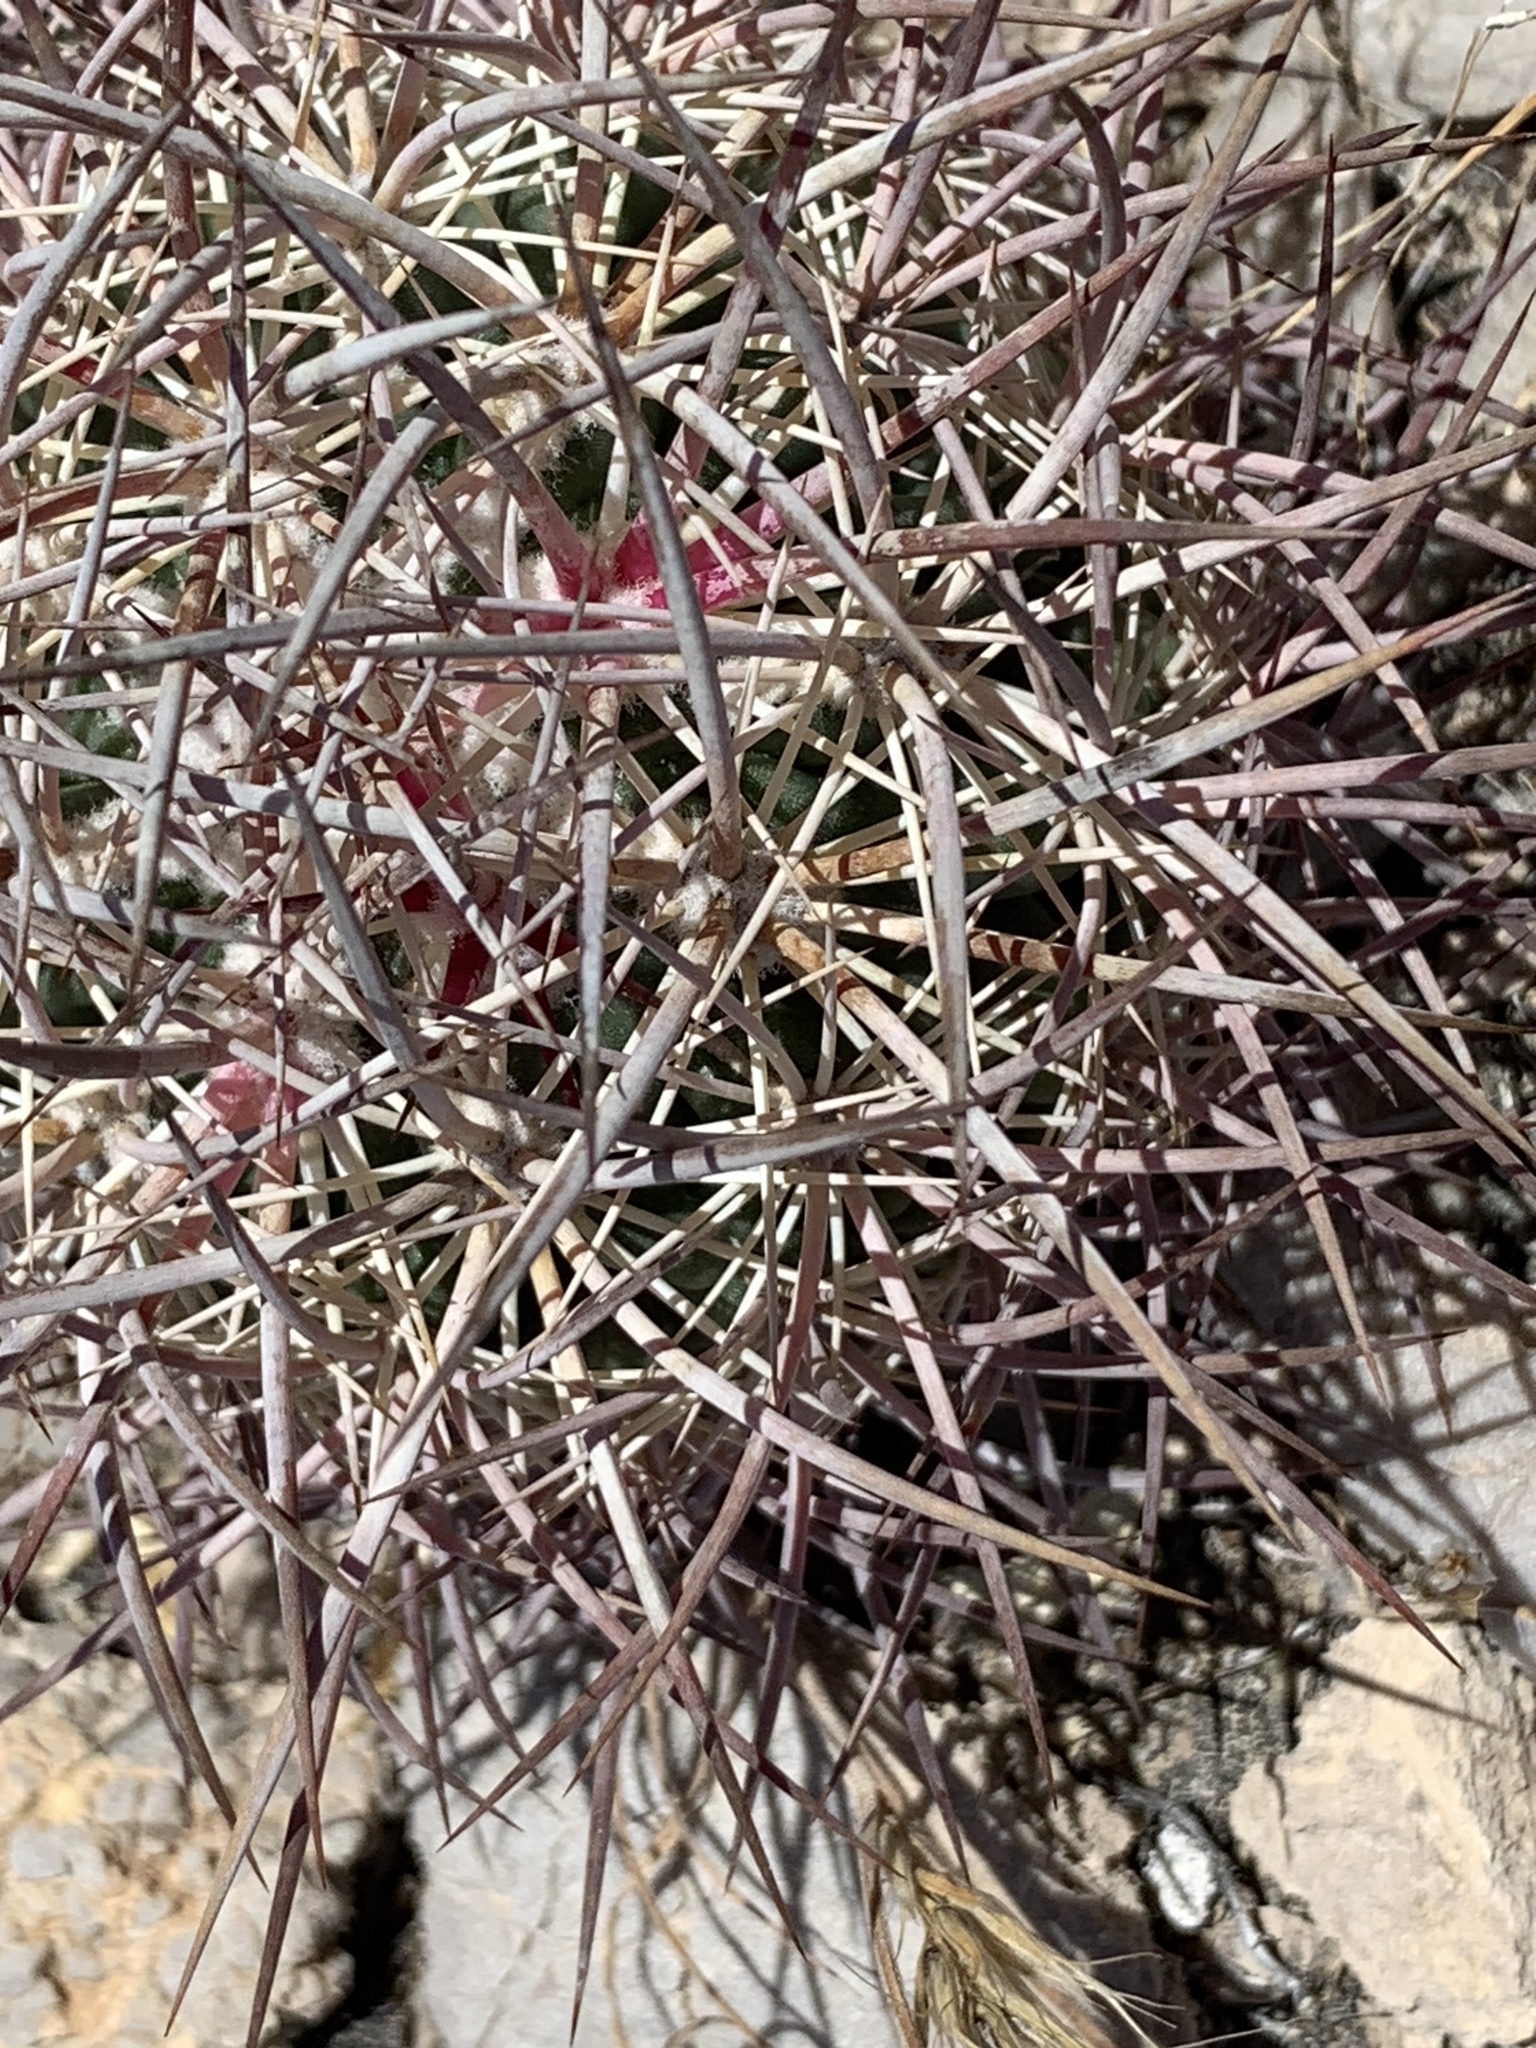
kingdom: Plantae
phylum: Tracheophyta
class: Magnoliopsida
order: Caryophyllales
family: Cactaceae
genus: Sclerocactus
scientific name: Sclerocactus johnsonii
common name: Eight-spine fishhook cactus
